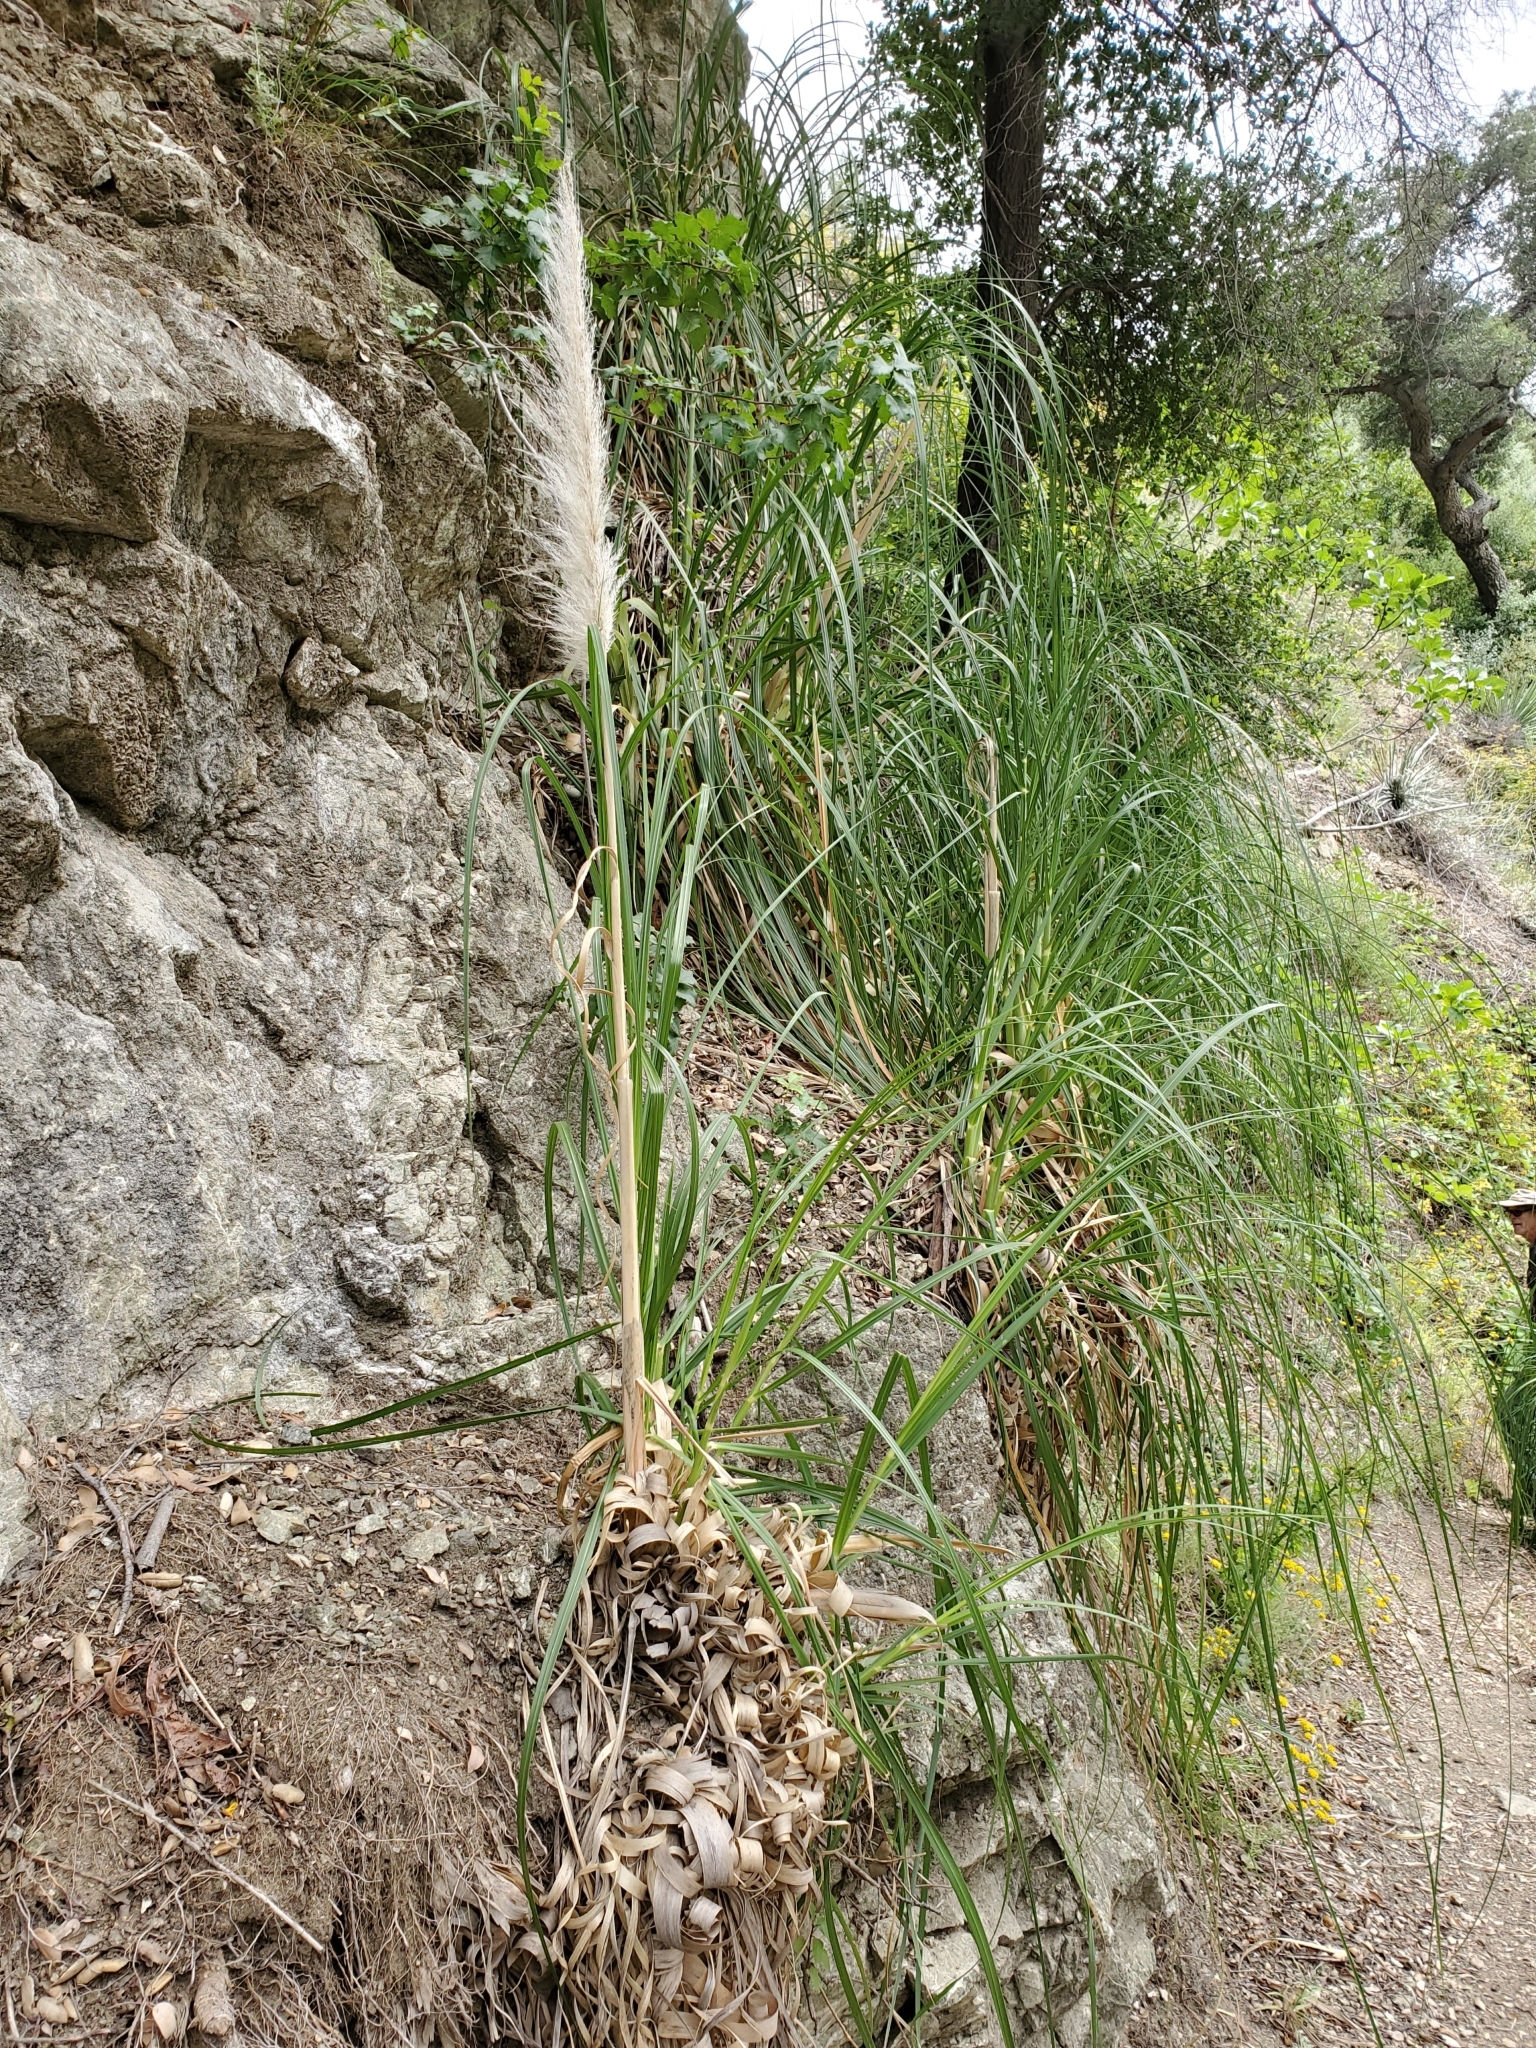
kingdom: Plantae
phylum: Tracheophyta
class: Liliopsida
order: Poales
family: Poaceae
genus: Cortaderia
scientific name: Cortaderia selloana
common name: Uruguayan pampas grass
